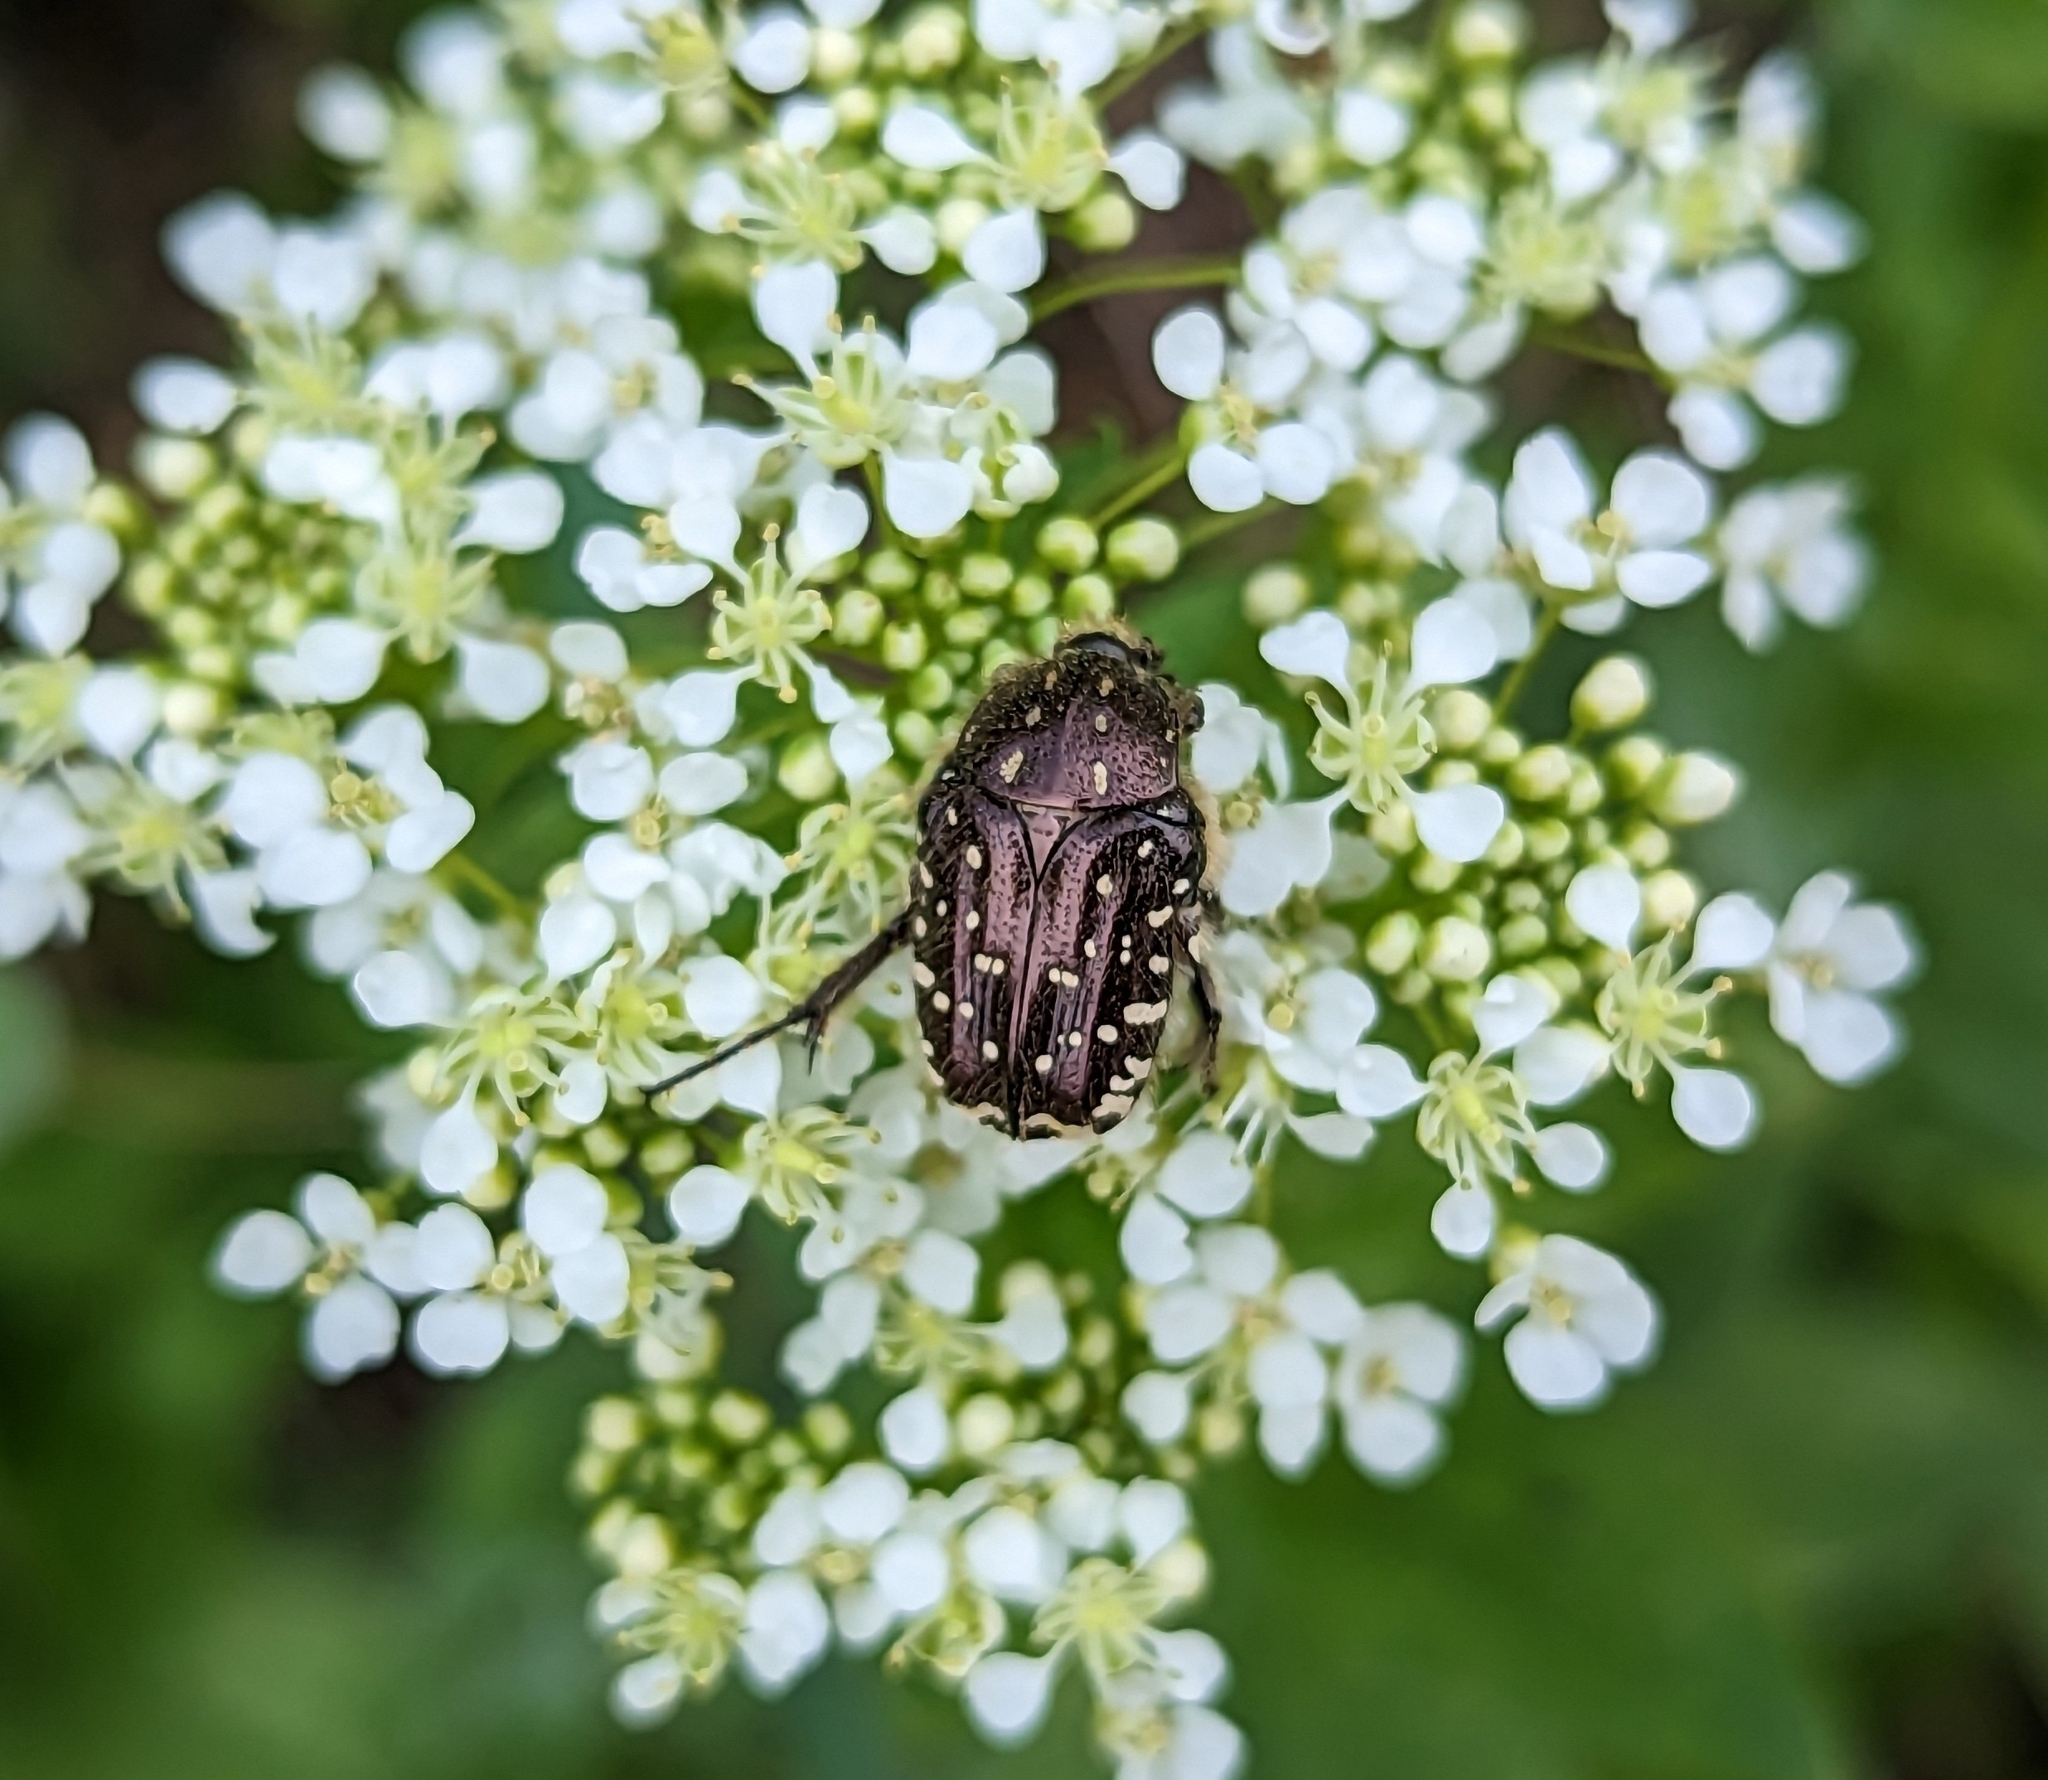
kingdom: Animalia
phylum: Arthropoda
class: Insecta
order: Coleoptera
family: Scarabaeidae
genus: Oxythyrea
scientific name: Oxythyrea funesta
